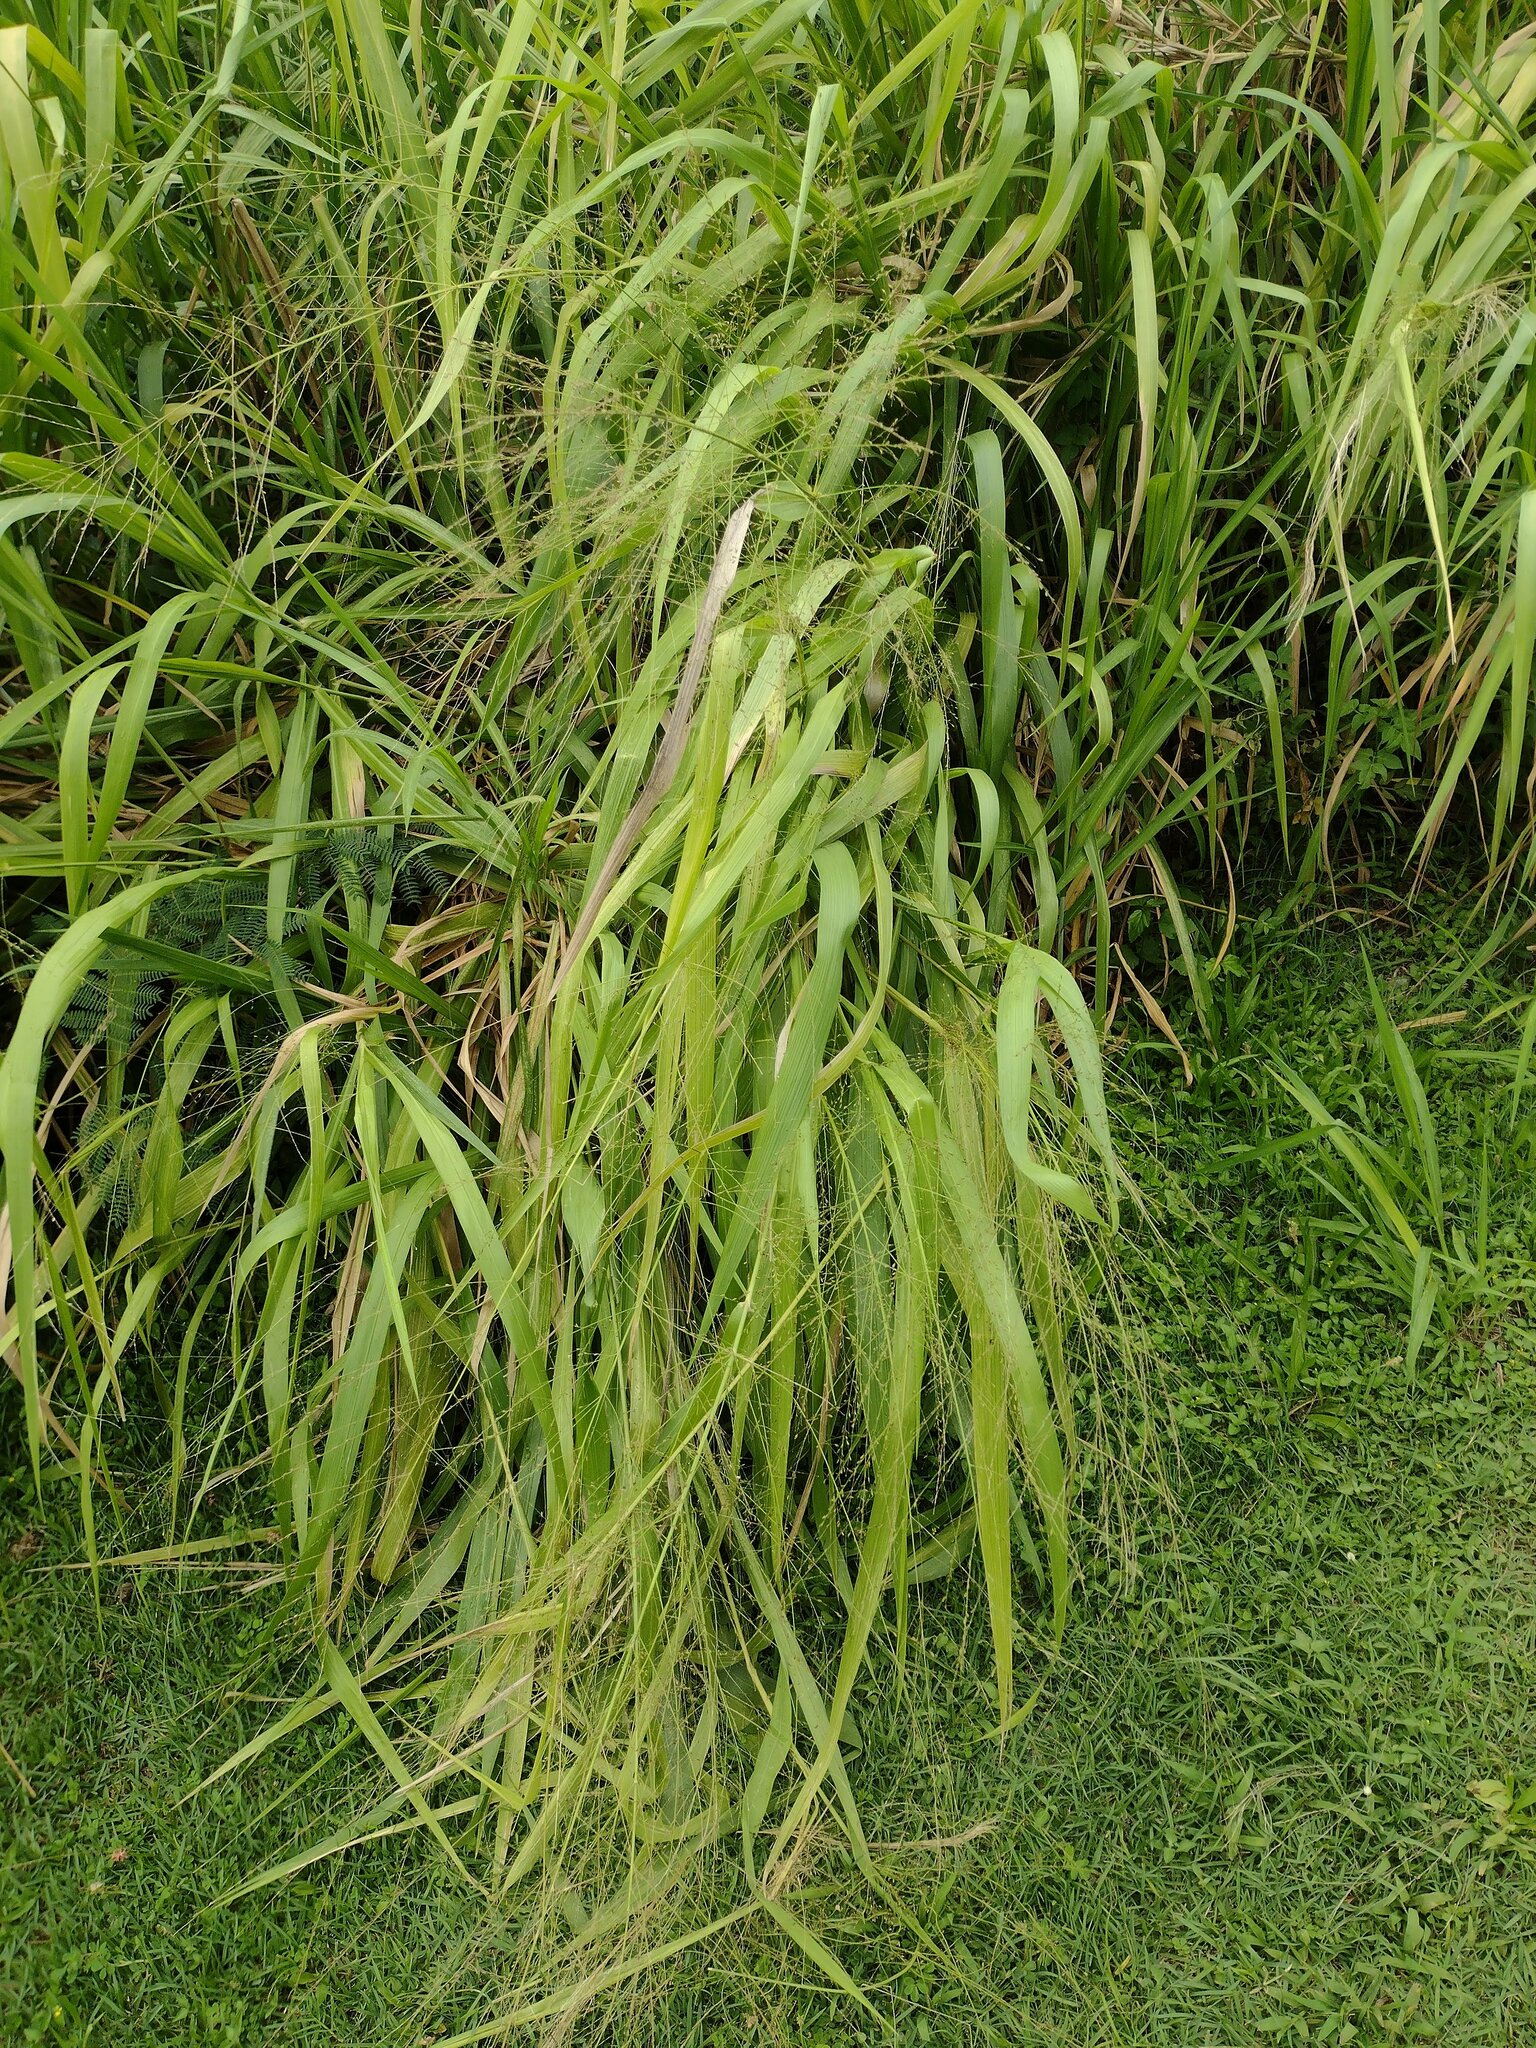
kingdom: Plantae
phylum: Tracheophyta
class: Liliopsida
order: Poales
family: Poaceae
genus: Megathyrsus
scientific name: Megathyrsus maximus
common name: Guineagrass
